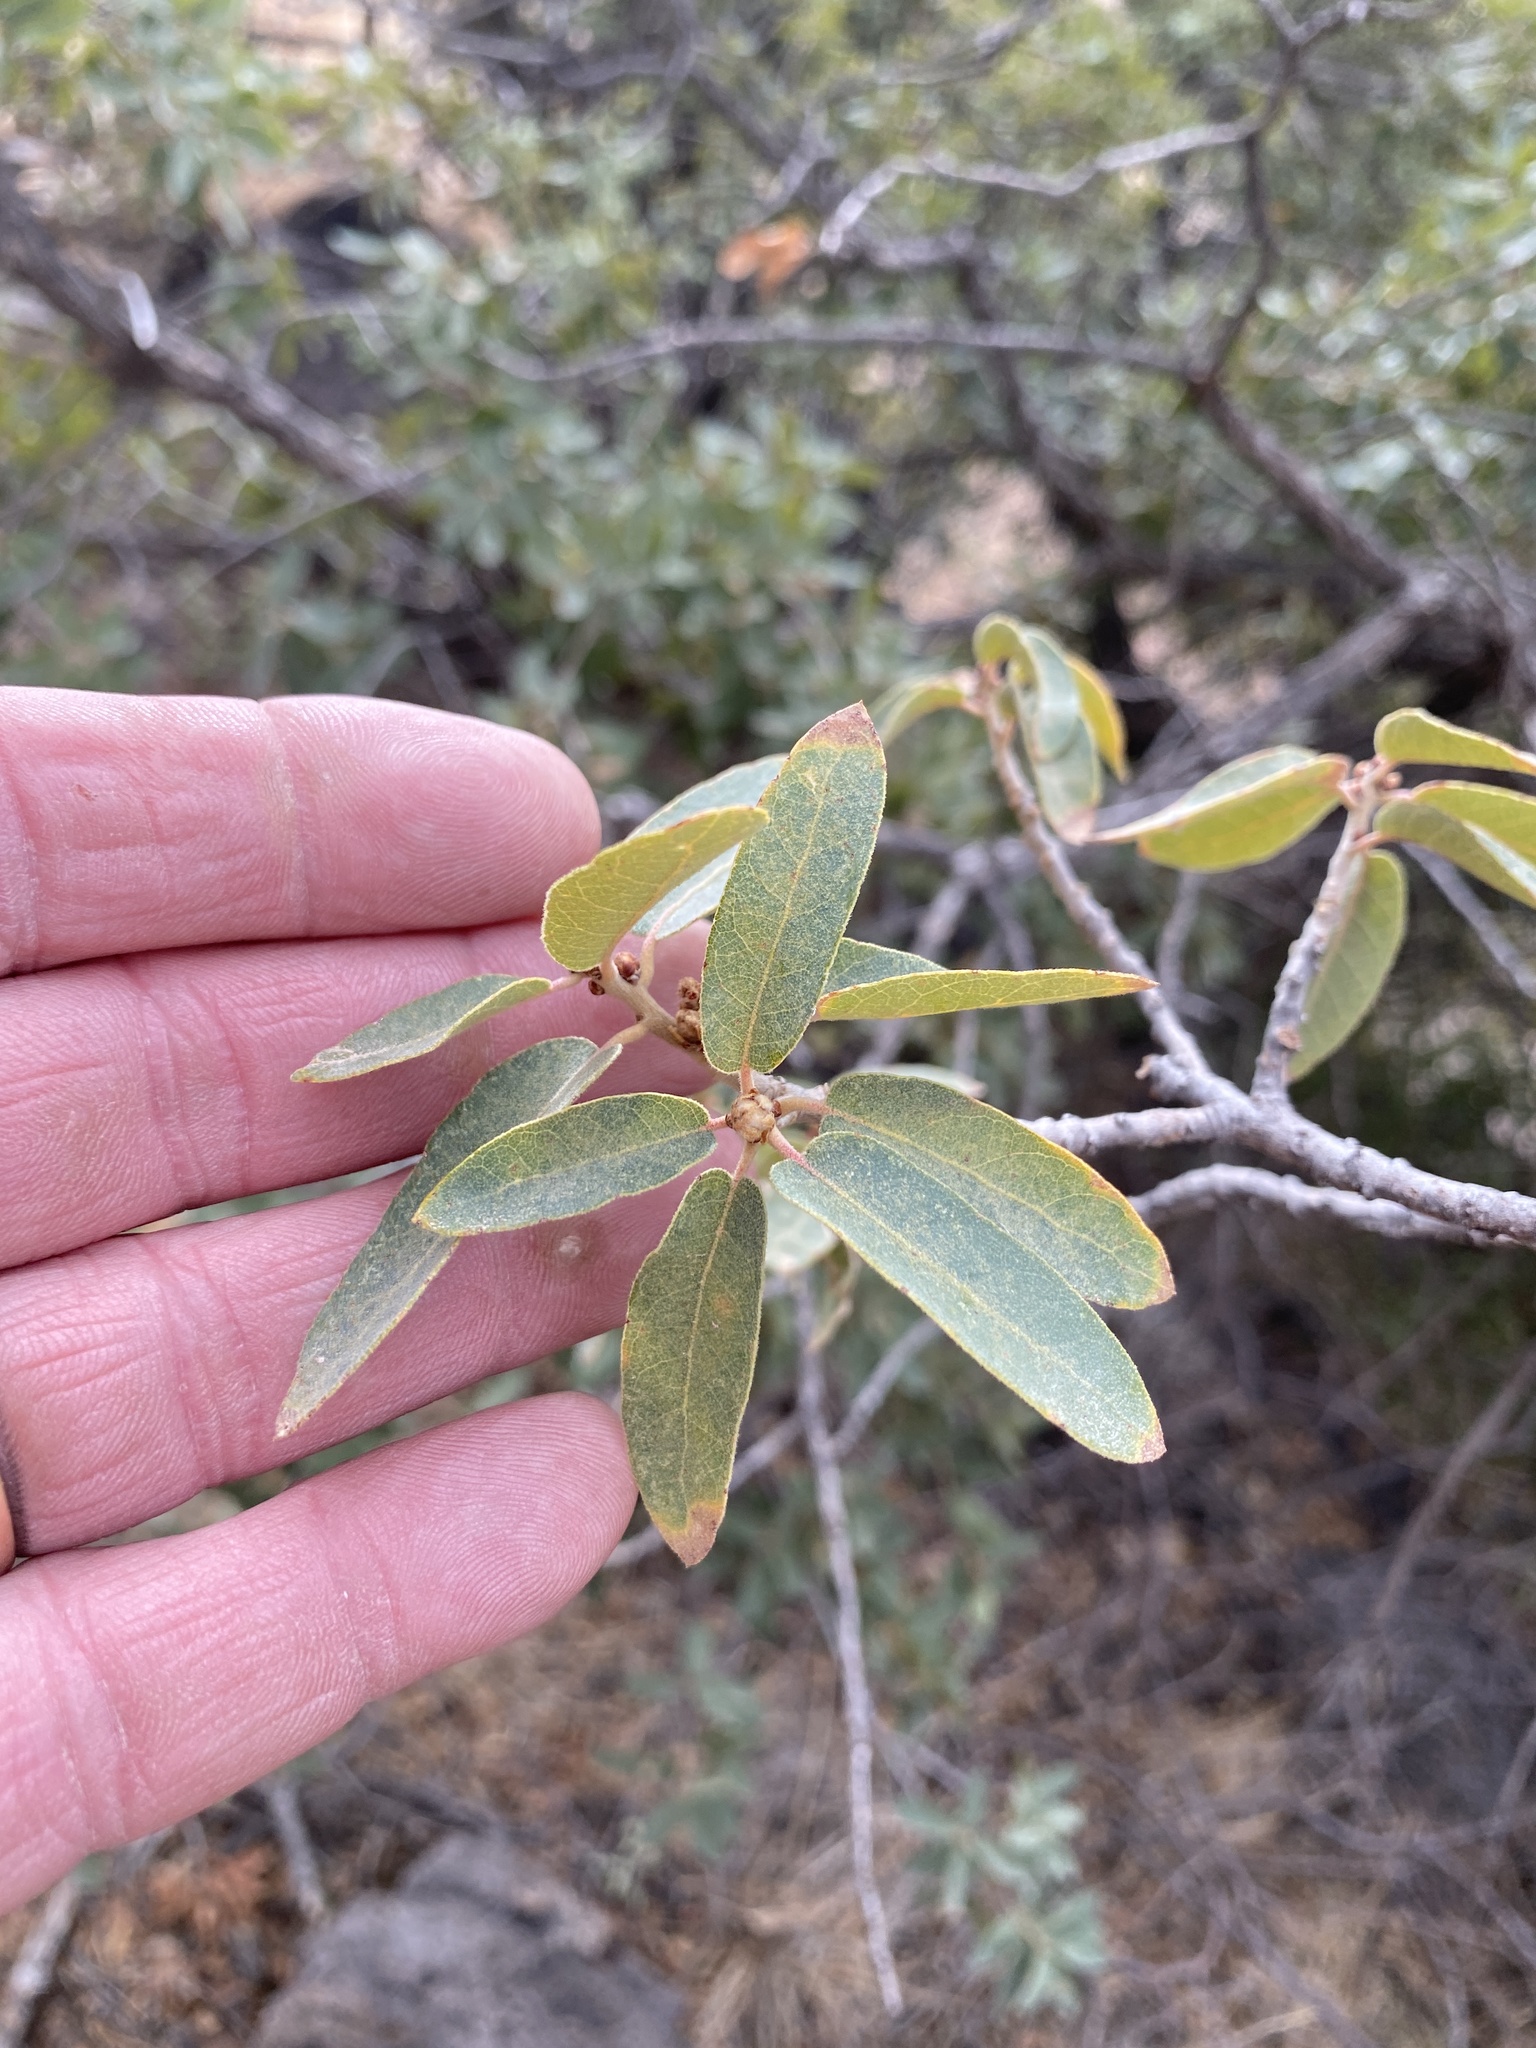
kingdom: Plantae
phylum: Tracheophyta
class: Magnoliopsida
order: Fagales
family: Fagaceae
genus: Quercus
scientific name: Quercus toumeyi
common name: Toumey oak
